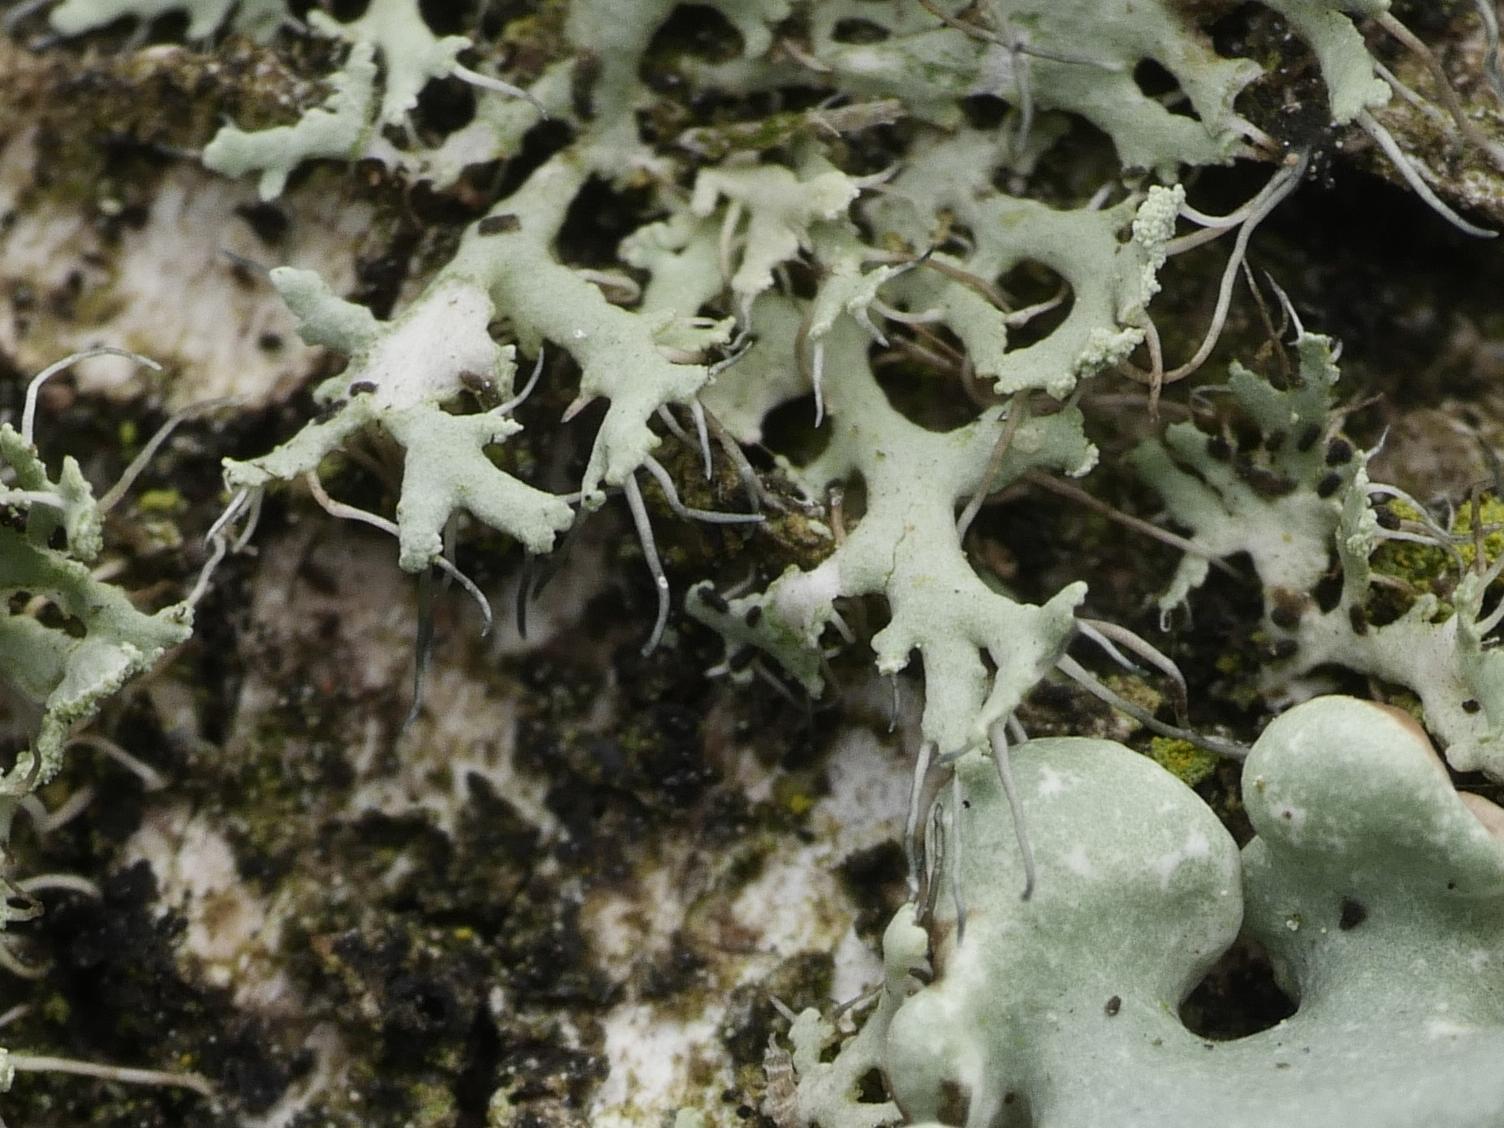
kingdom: Fungi
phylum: Ascomycota
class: Lecanoromycetes
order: Caliciales
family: Physciaceae
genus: Physcia
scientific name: Physcia tenella
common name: Fringed rosette lichen
